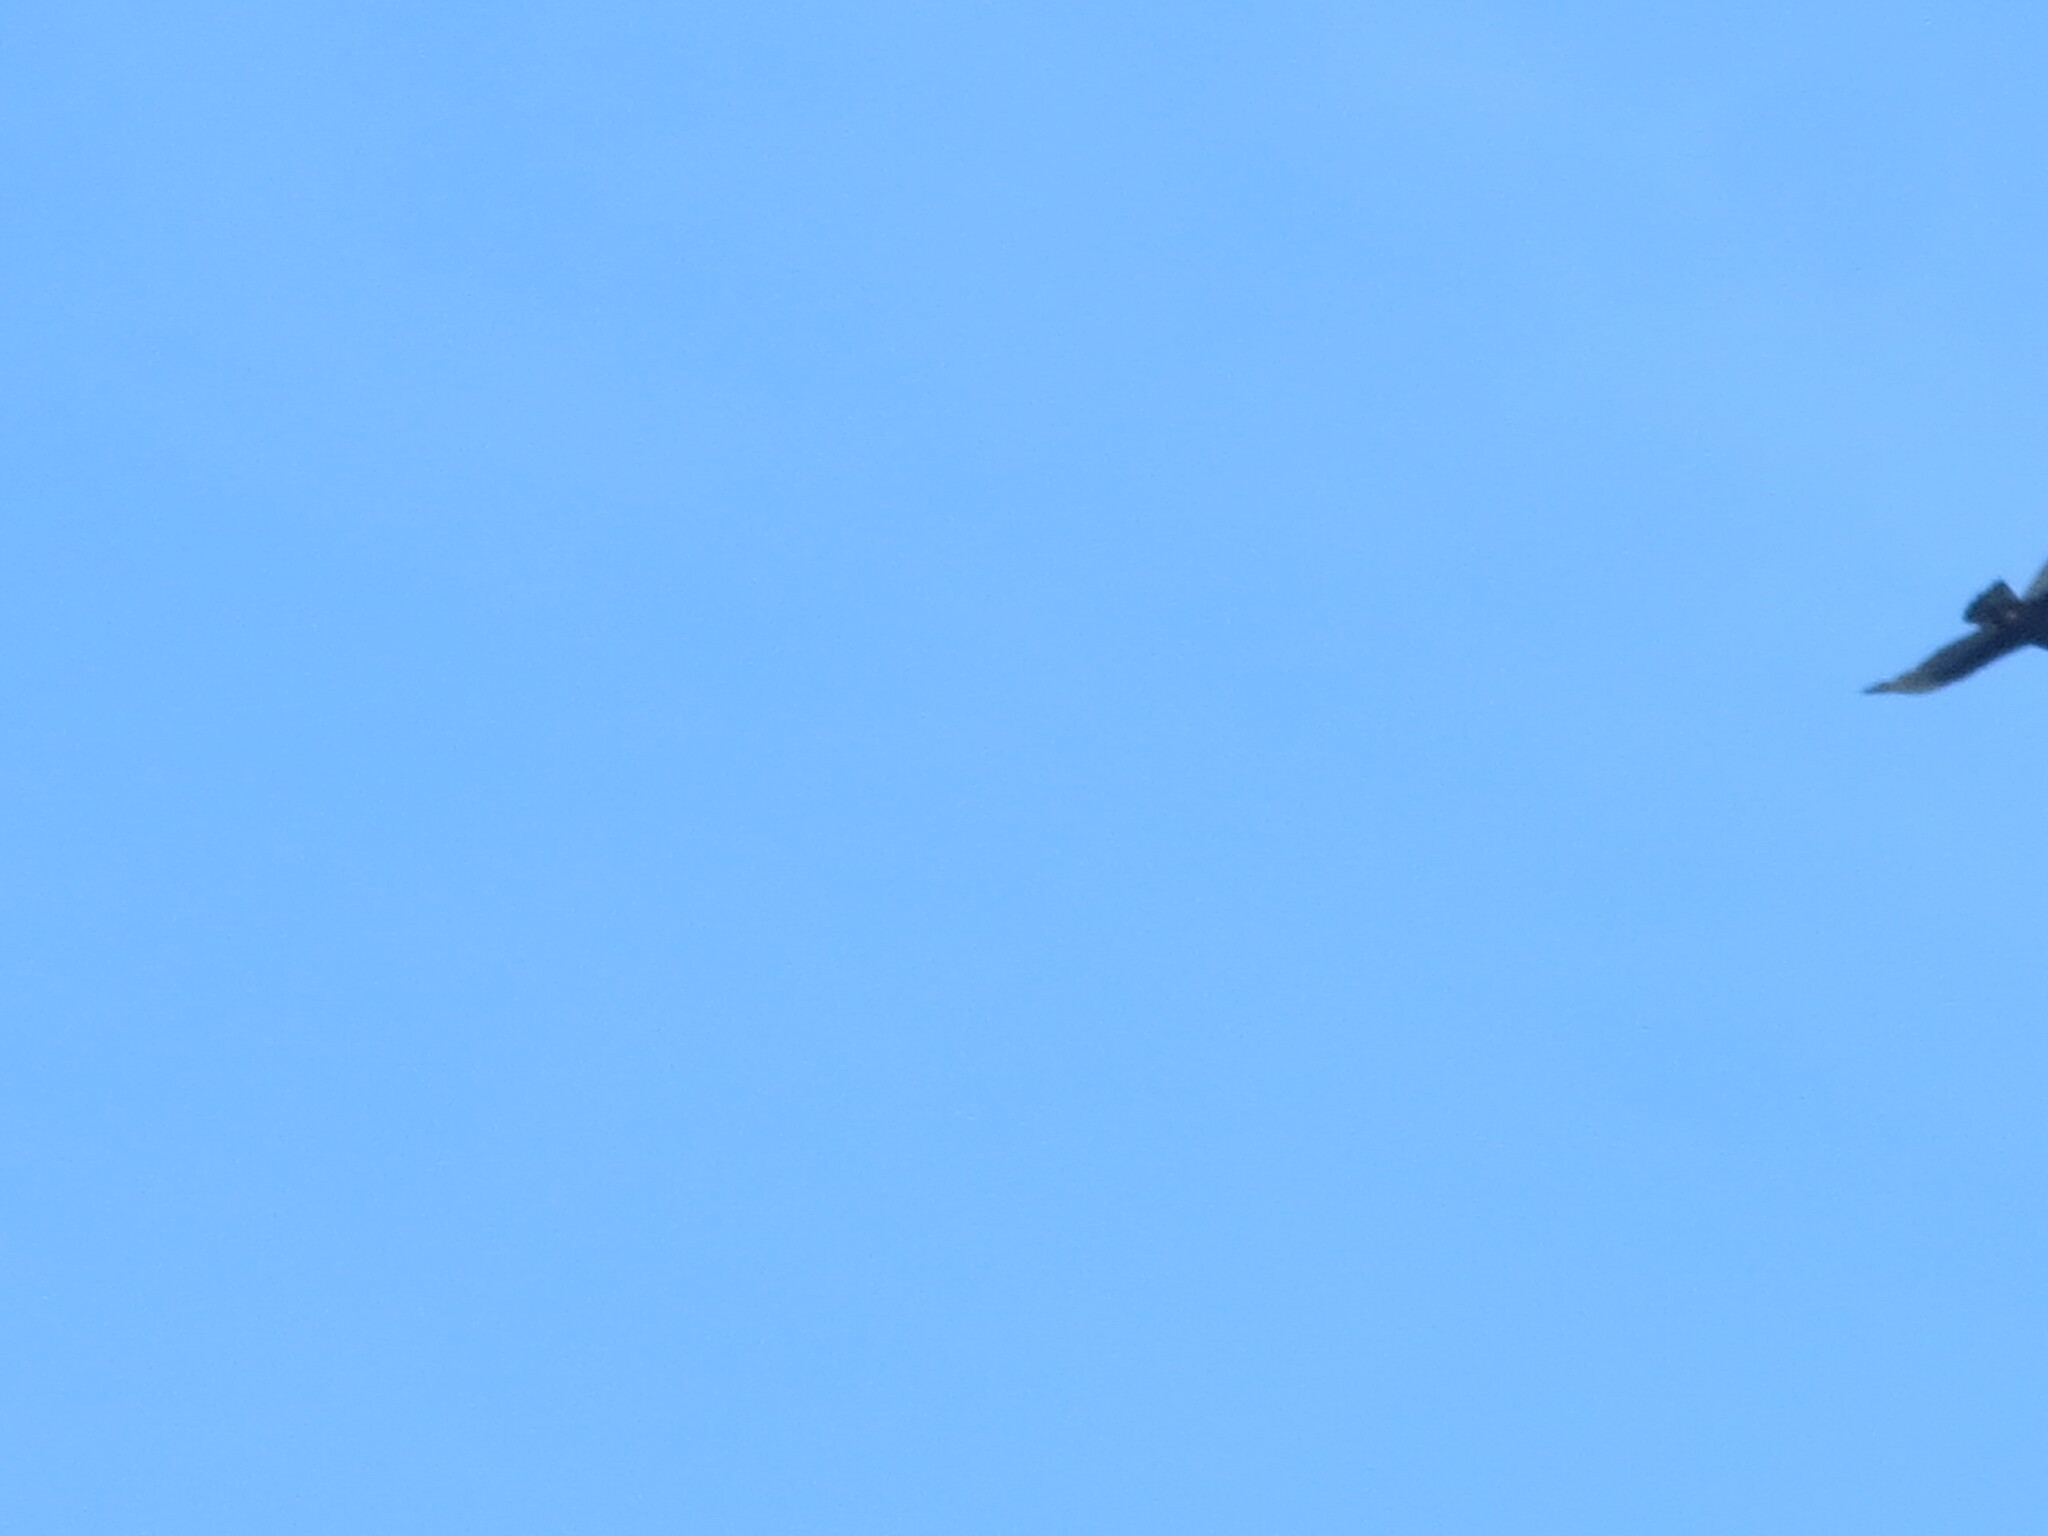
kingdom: Animalia
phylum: Chordata
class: Aves
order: Accipitriformes
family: Cathartidae
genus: Cathartes
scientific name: Cathartes aura
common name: Turkey vulture
